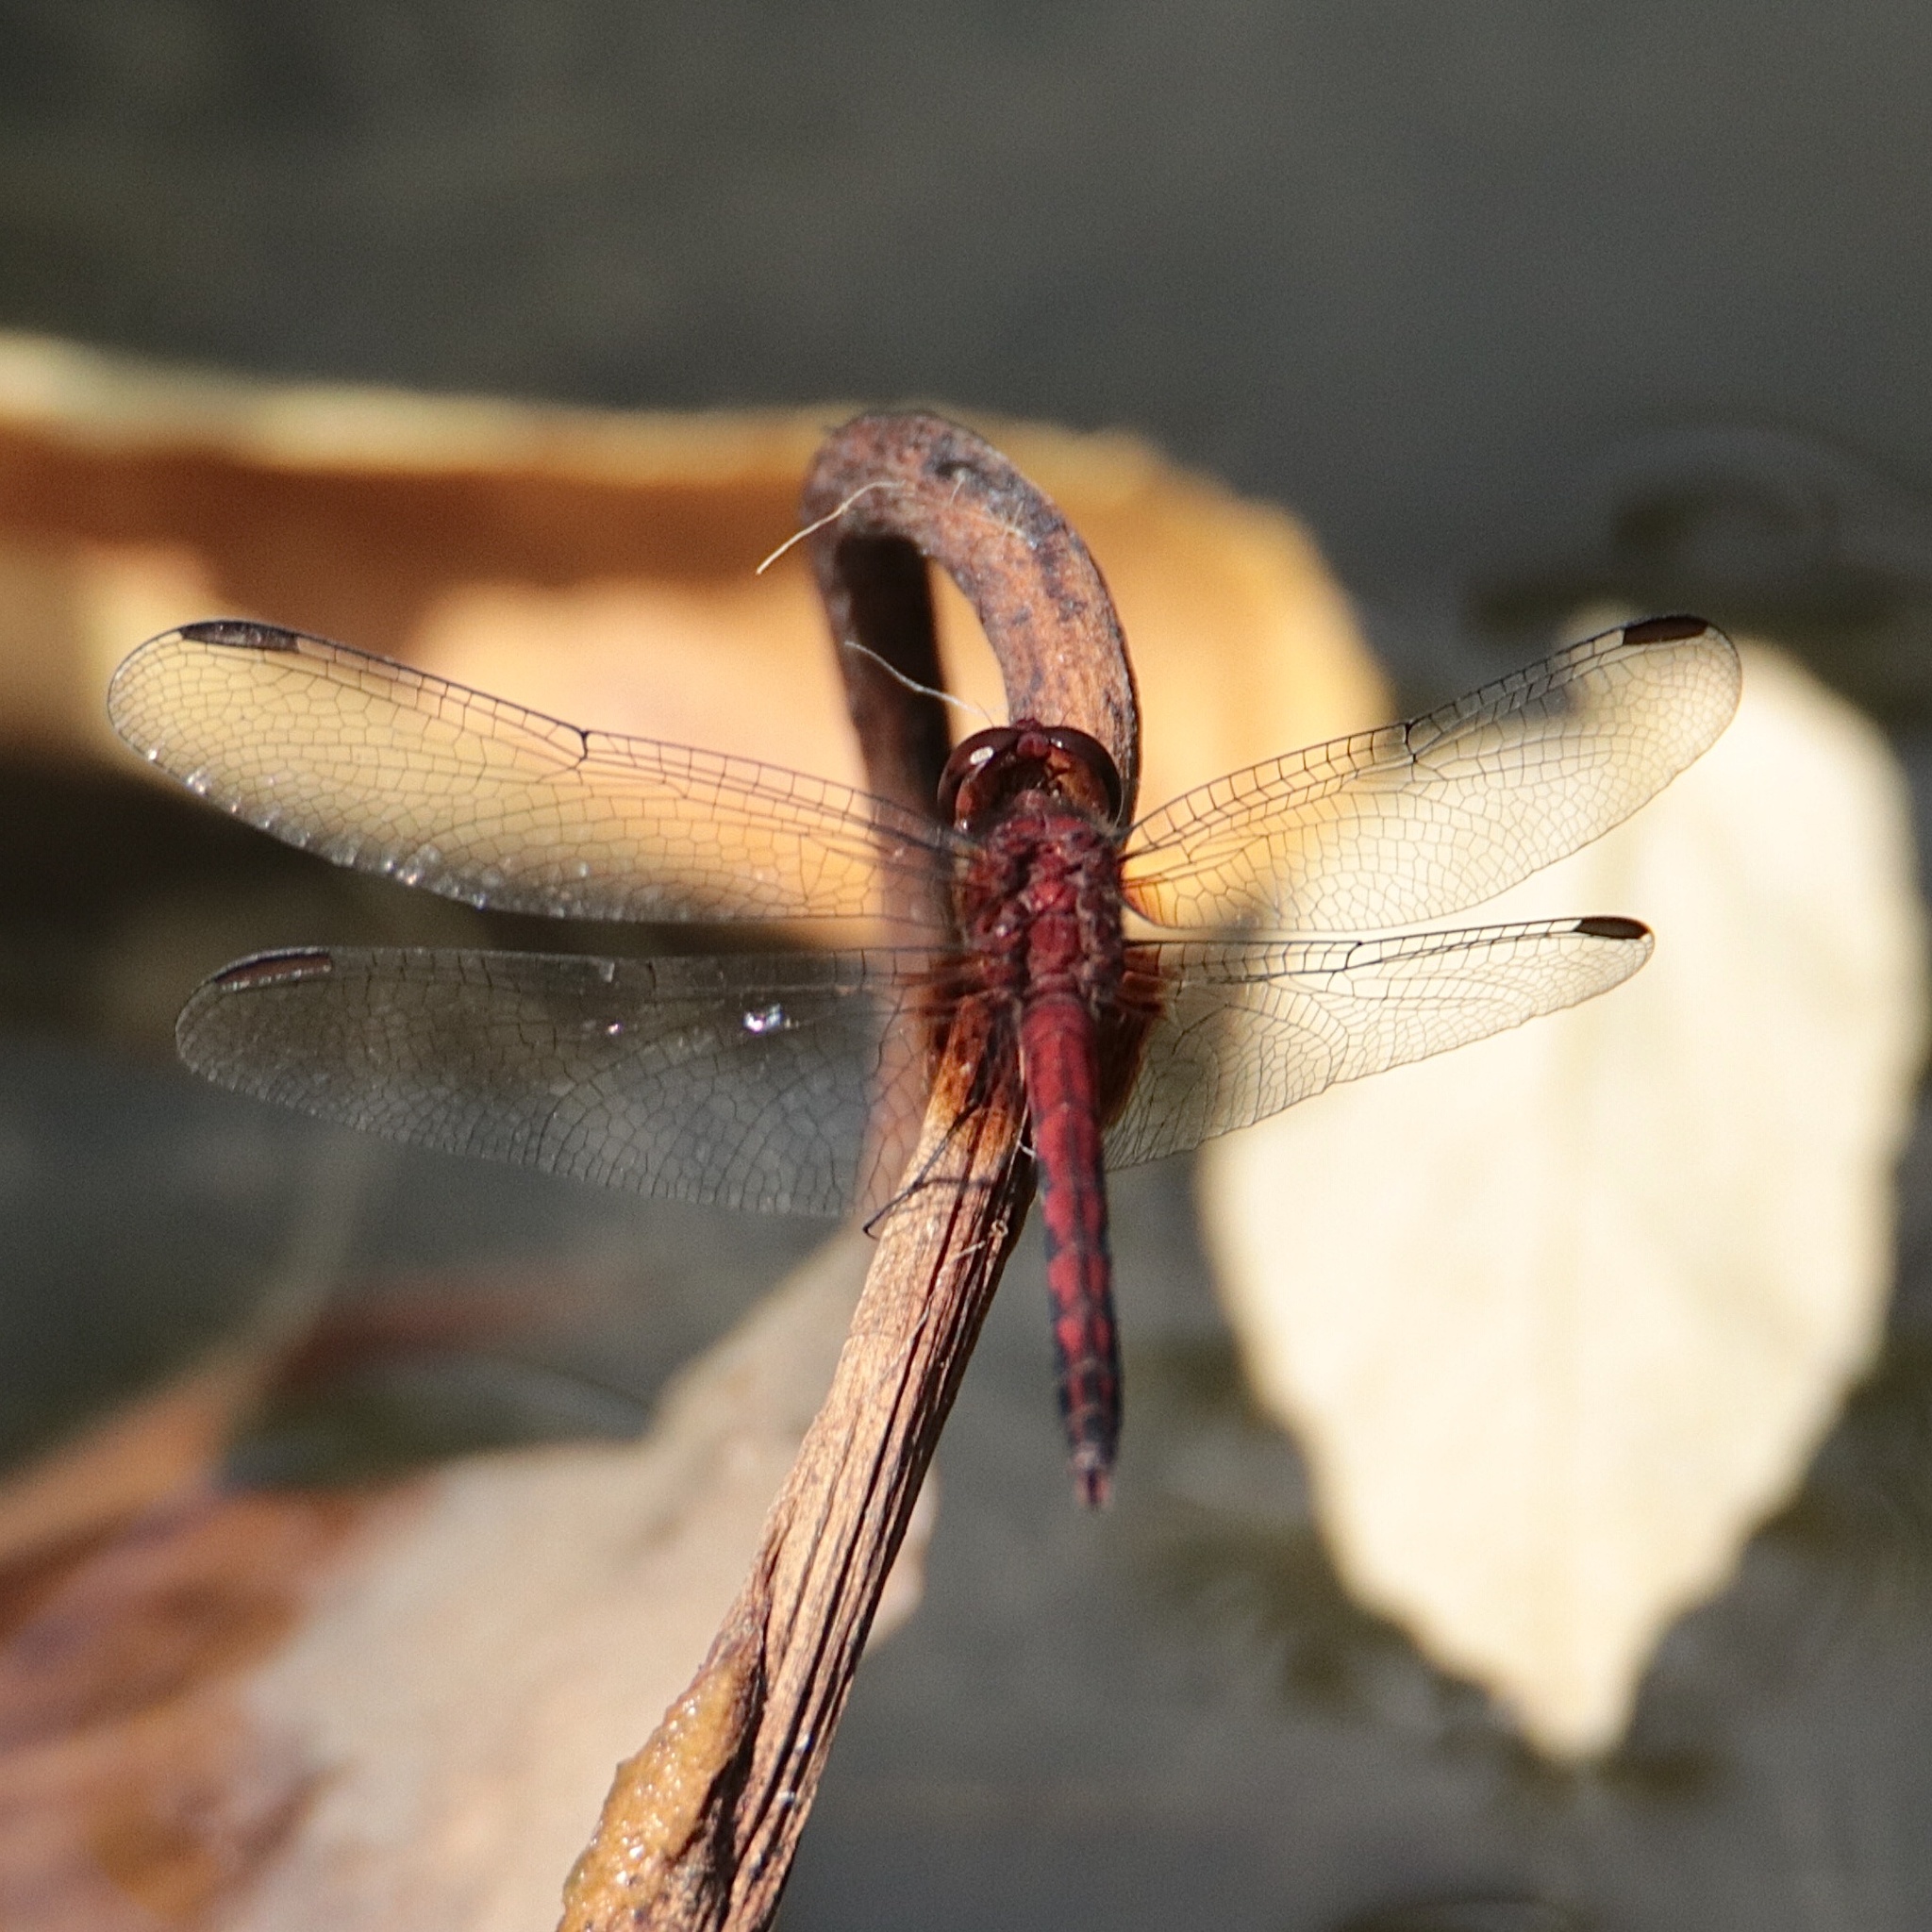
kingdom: Animalia
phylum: Arthropoda
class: Insecta
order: Odonata
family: Libellulidae
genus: Erythrodiplax
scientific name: Erythrodiplax fusca
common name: Red-faced dragonlet
